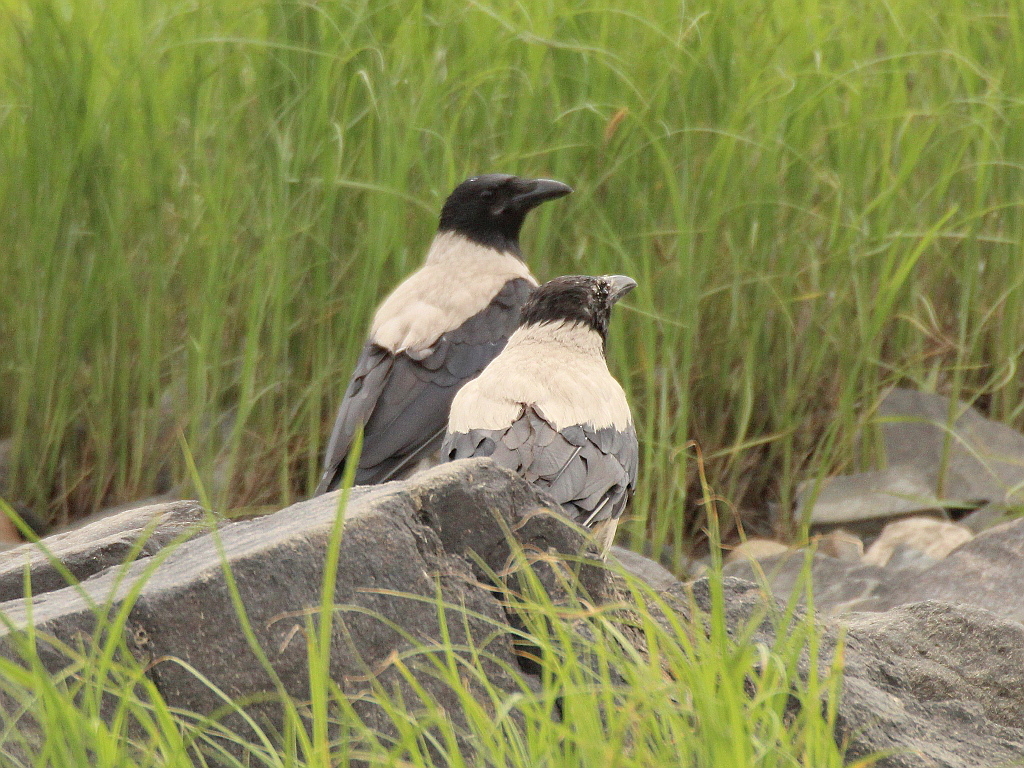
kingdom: Animalia
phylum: Chordata
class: Aves
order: Passeriformes
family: Corvidae
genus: Corvus
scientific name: Corvus cornix
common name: Hooded crow
